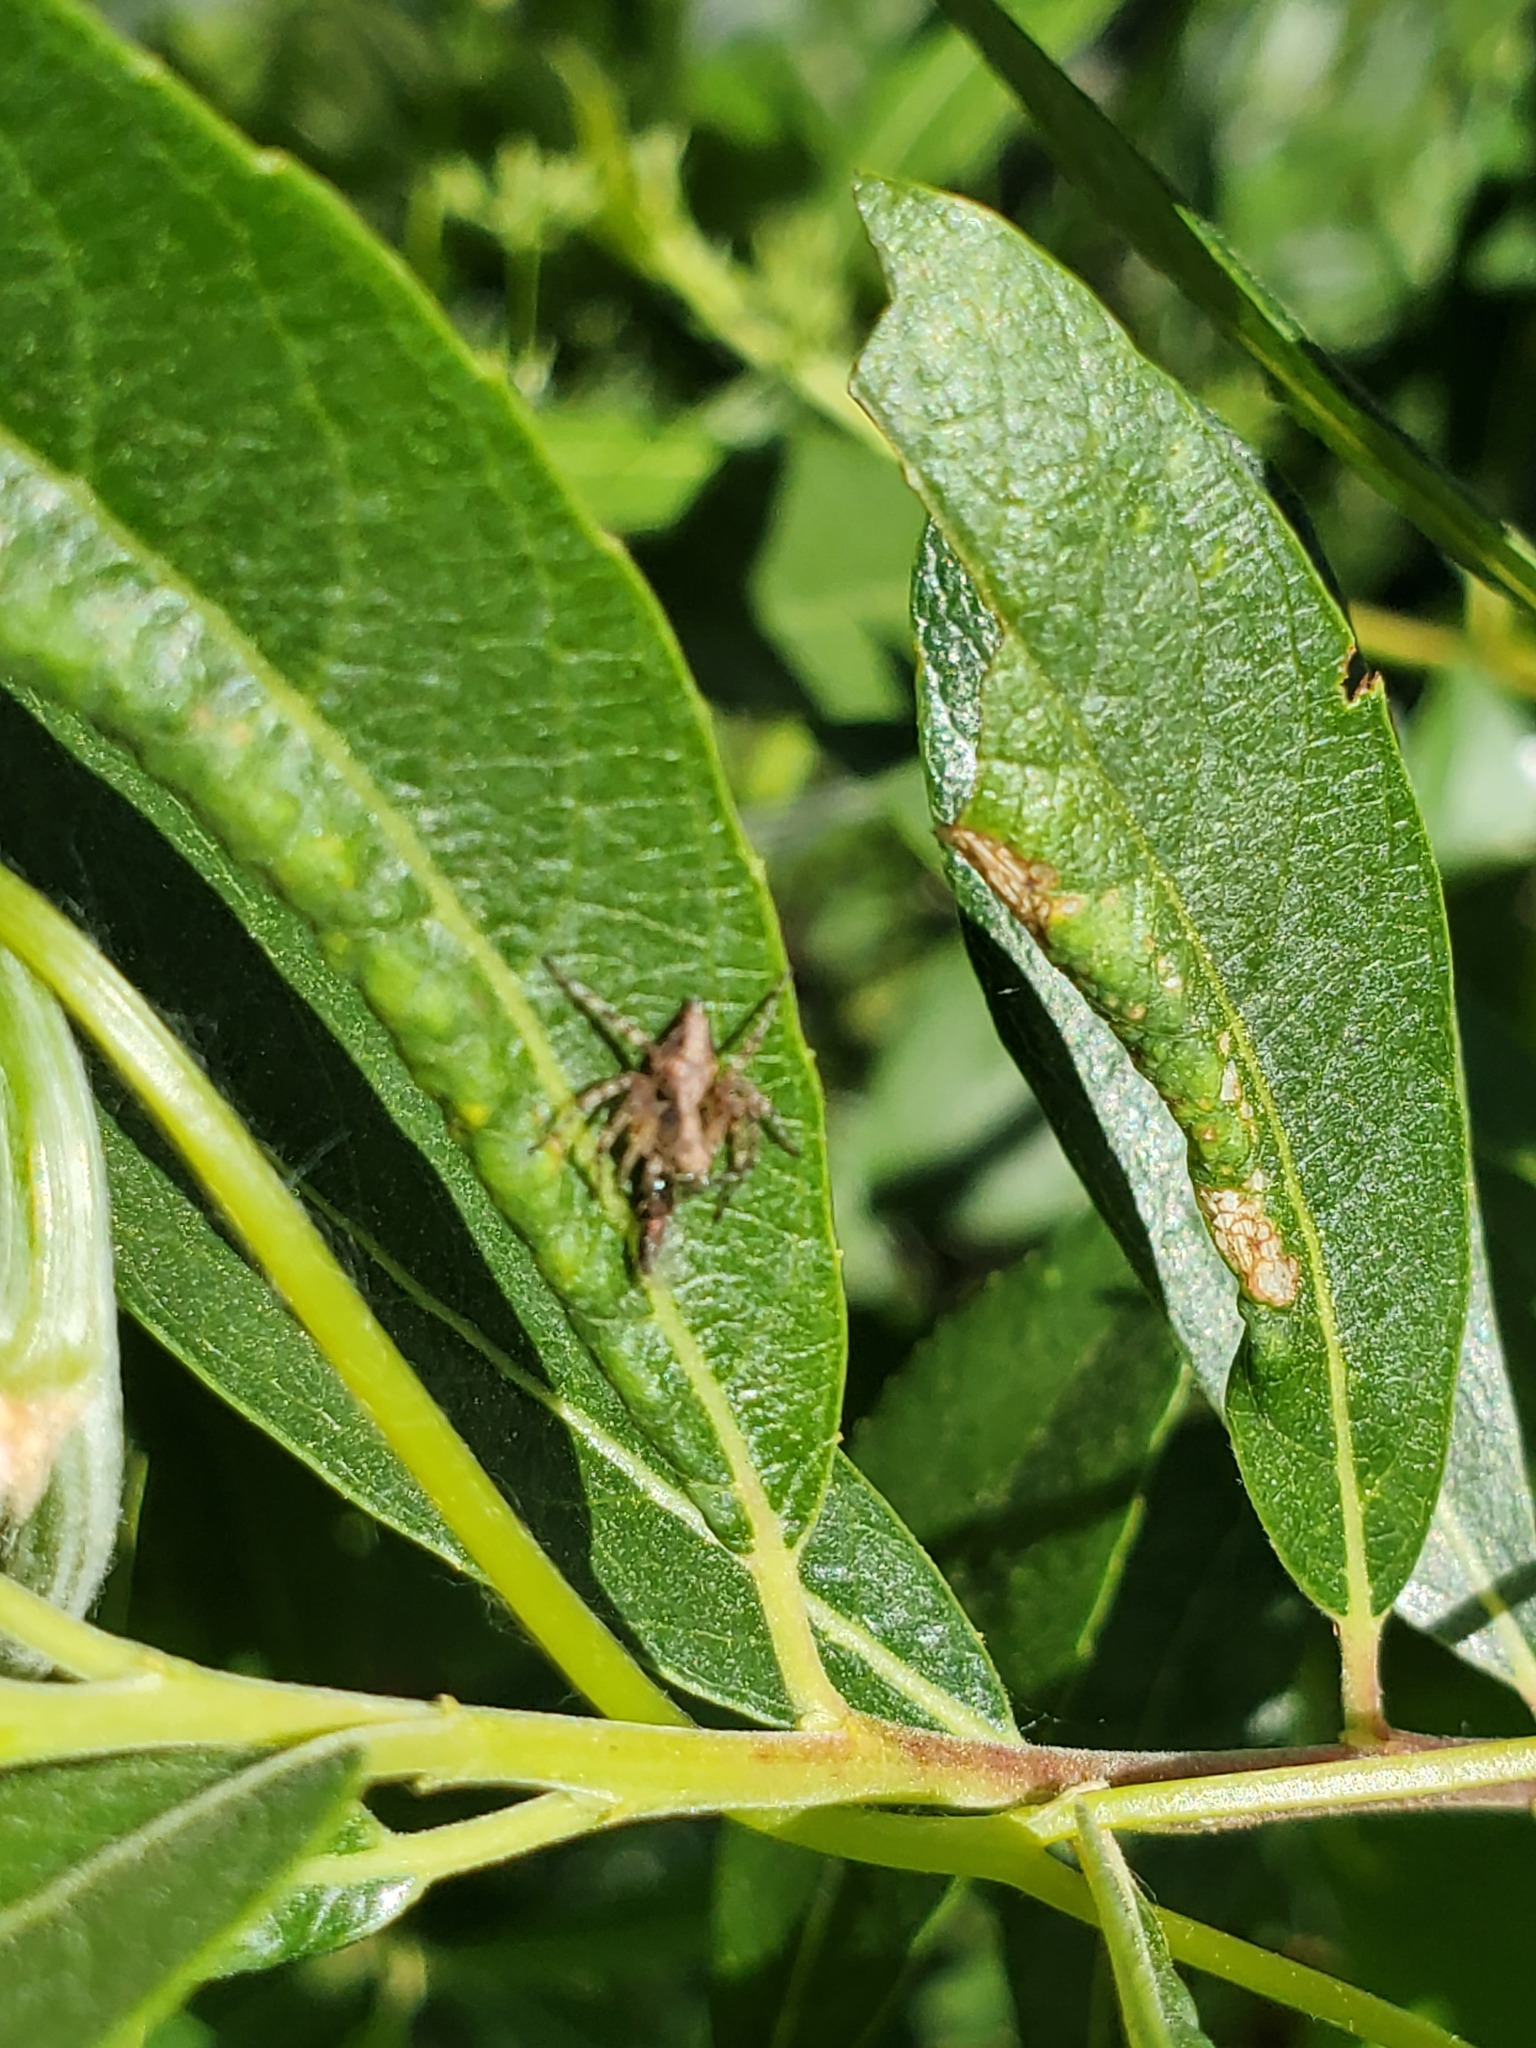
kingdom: Animalia
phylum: Arthropoda
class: Arachnida
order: Araneae
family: Oxyopidae
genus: Oxyopes
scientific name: Oxyopes scalaris
